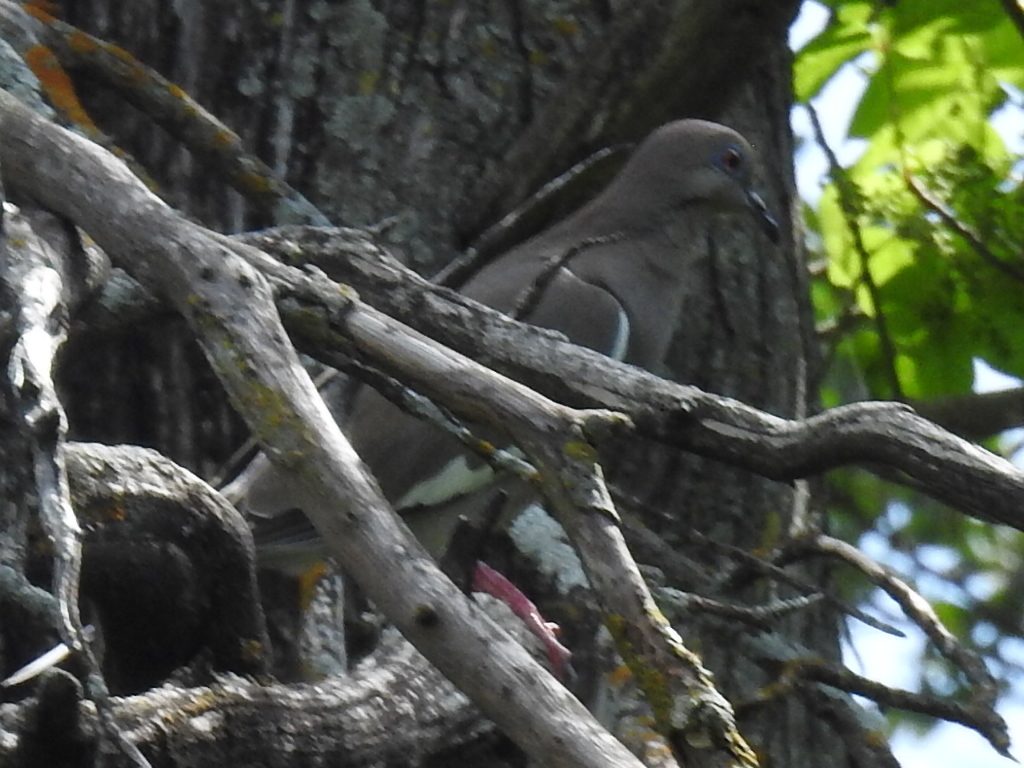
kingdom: Animalia
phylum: Chordata
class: Aves
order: Columbiformes
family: Columbidae
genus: Zenaida
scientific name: Zenaida asiatica
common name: White-winged dove
